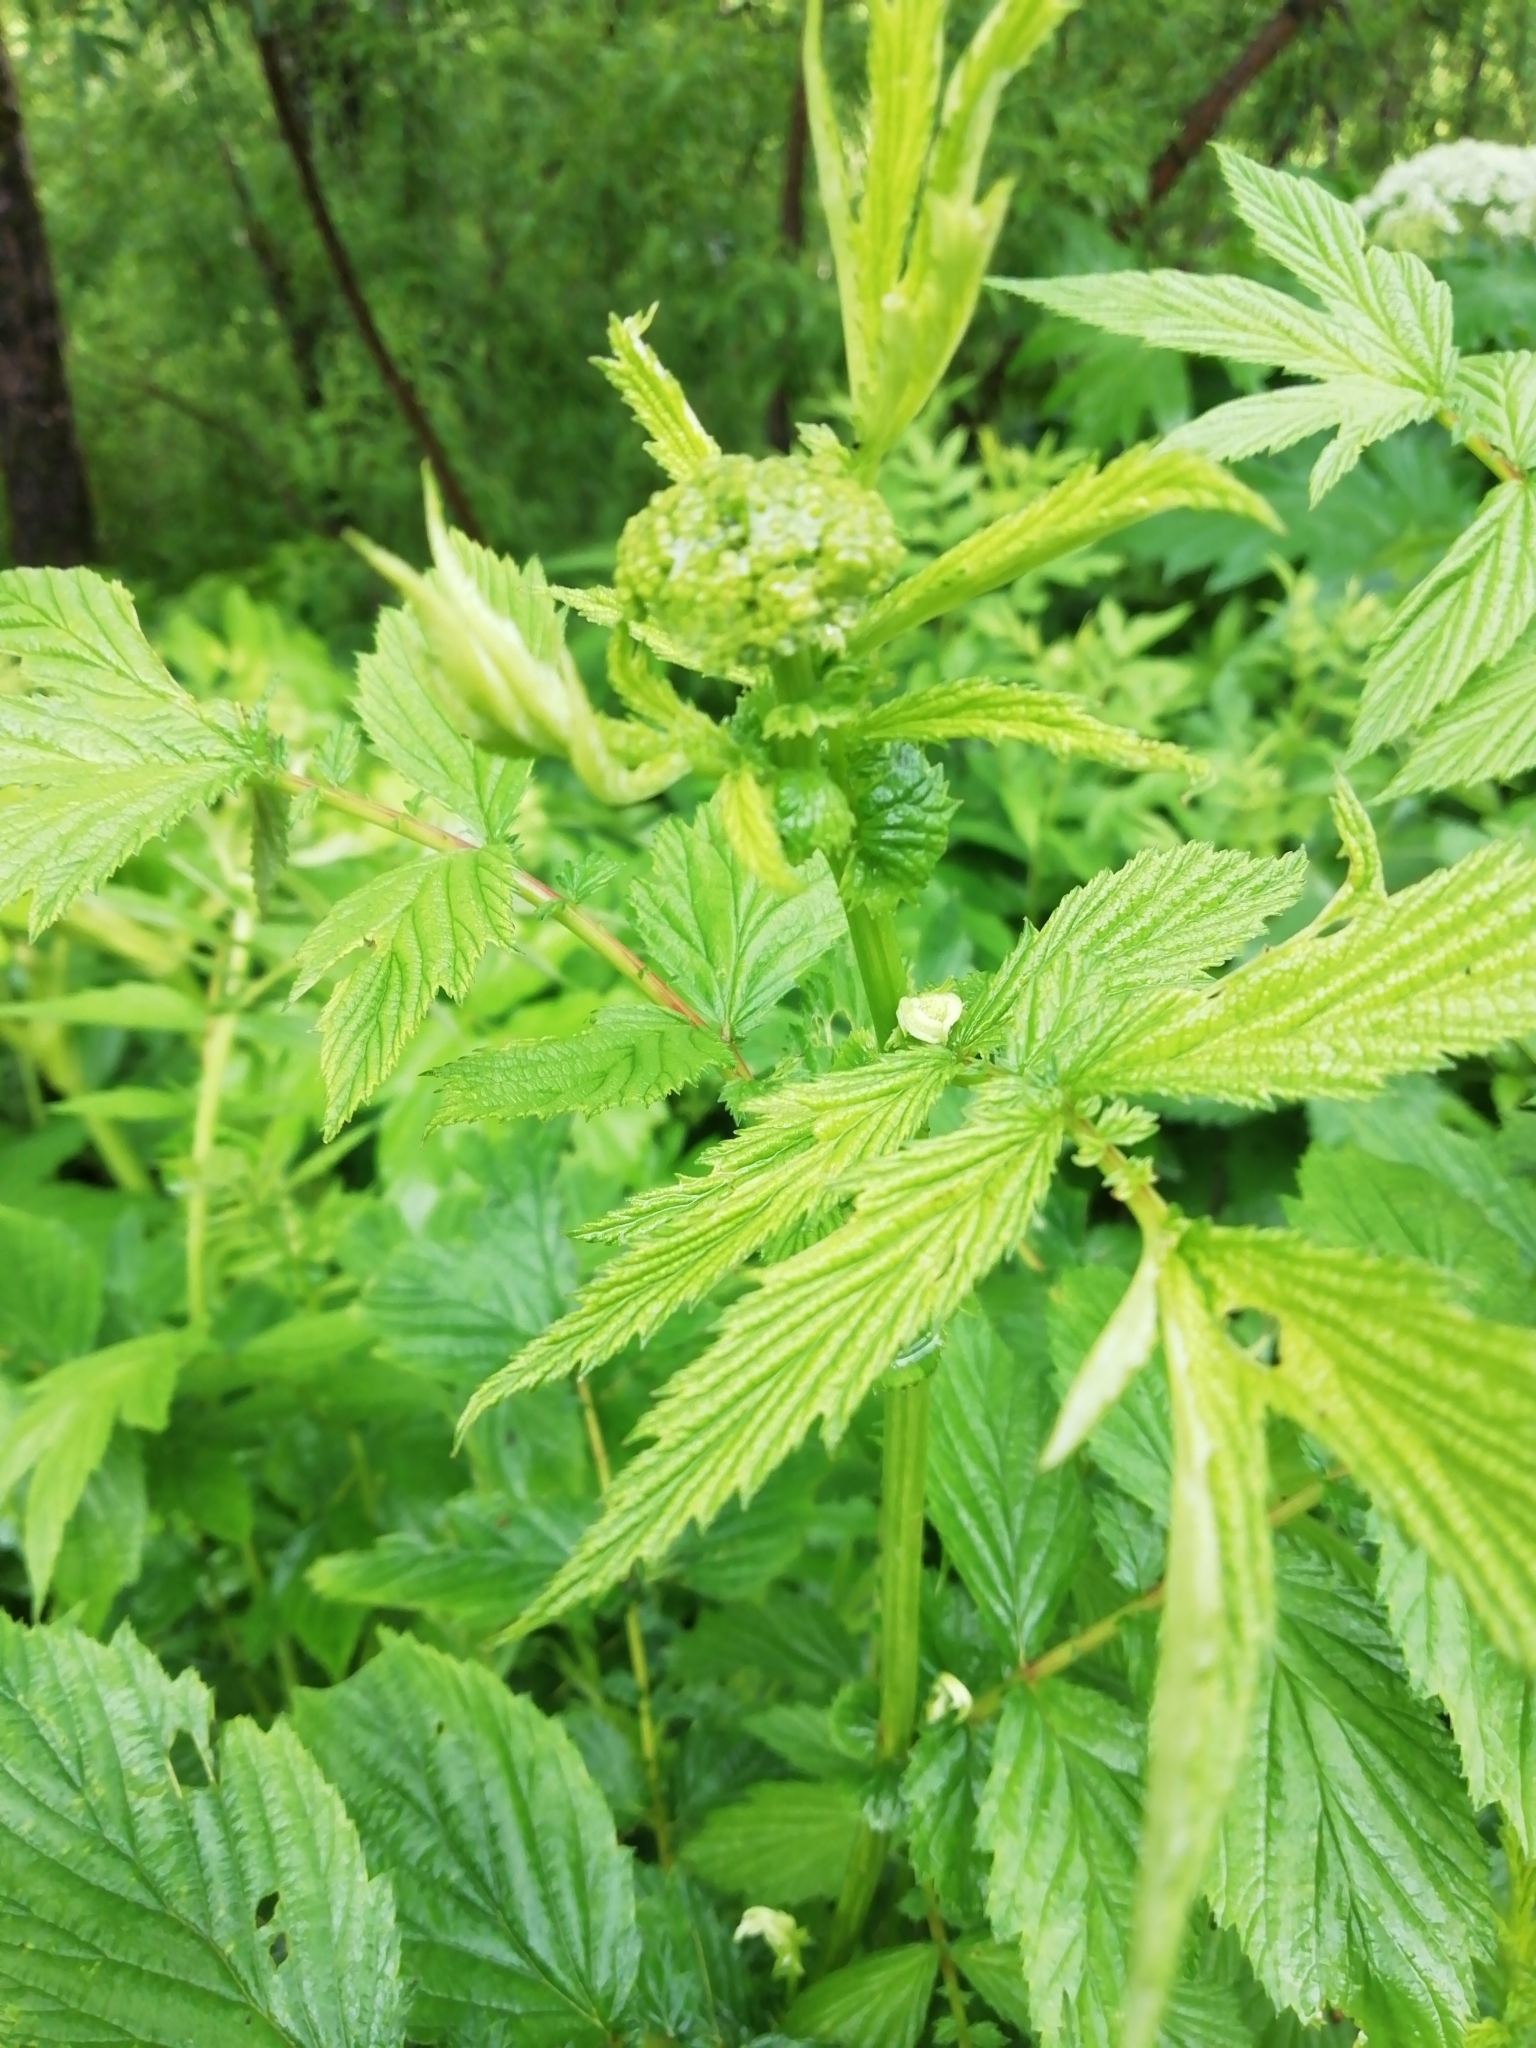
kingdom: Plantae
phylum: Tracheophyta
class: Magnoliopsida
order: Rosales
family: Rosaceae
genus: Filipendula
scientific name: Filipendula ulmaria
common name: Meadowsweet
